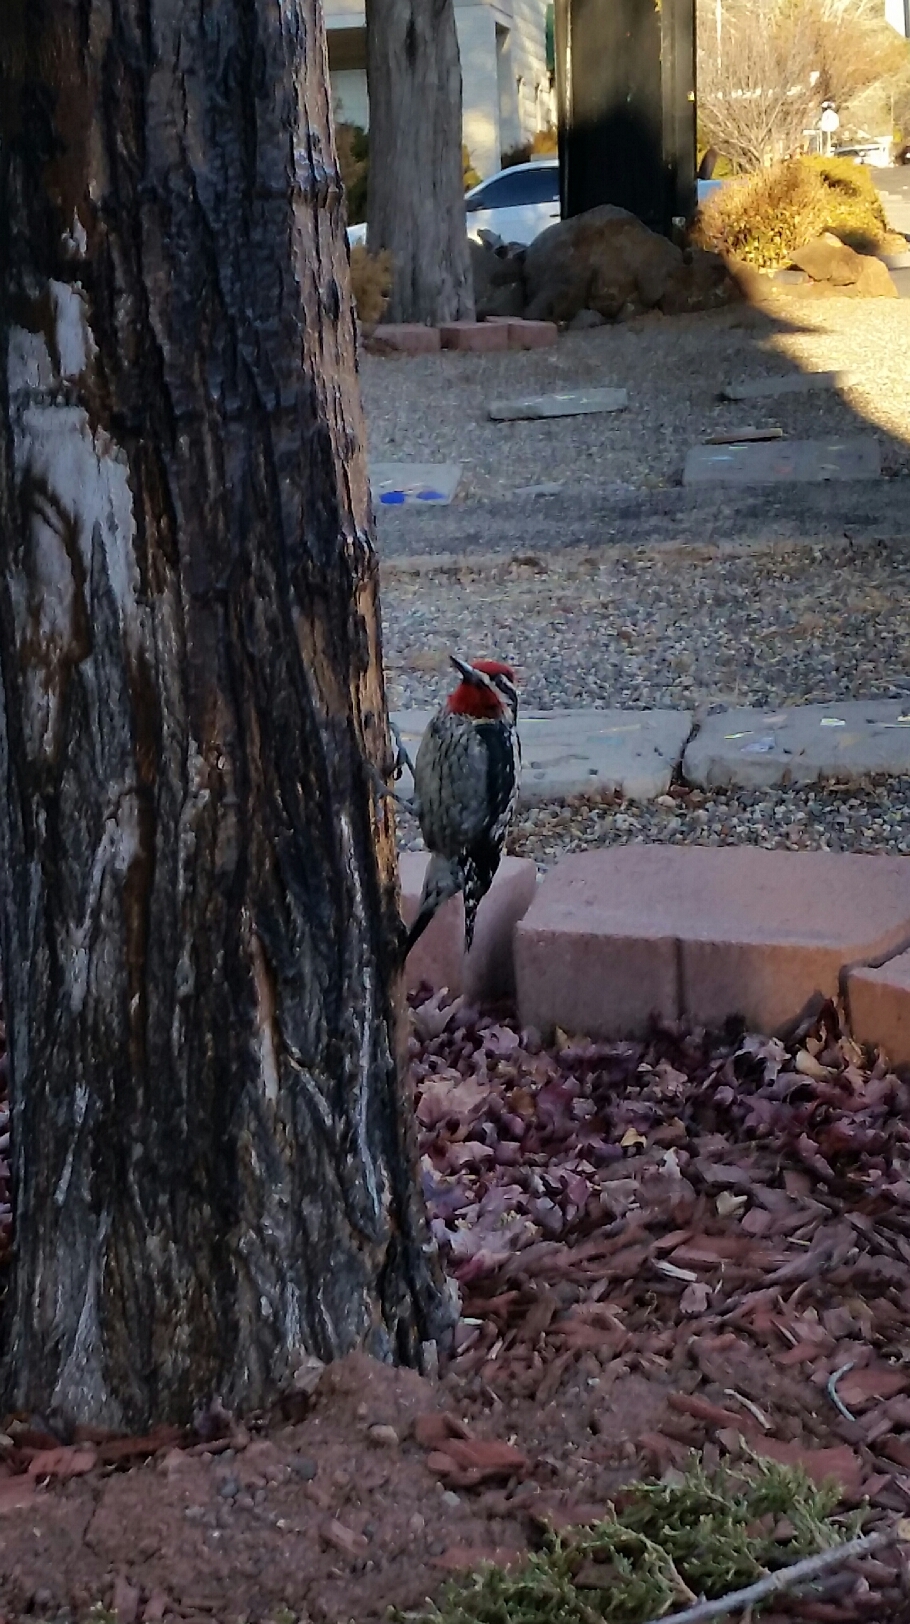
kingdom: Animalia
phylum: Chordata
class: Aves
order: Piciformes
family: Picidae
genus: Sphyrapicus
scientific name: Sphyrapicus nuchalis
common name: Red-naped sapsucker
